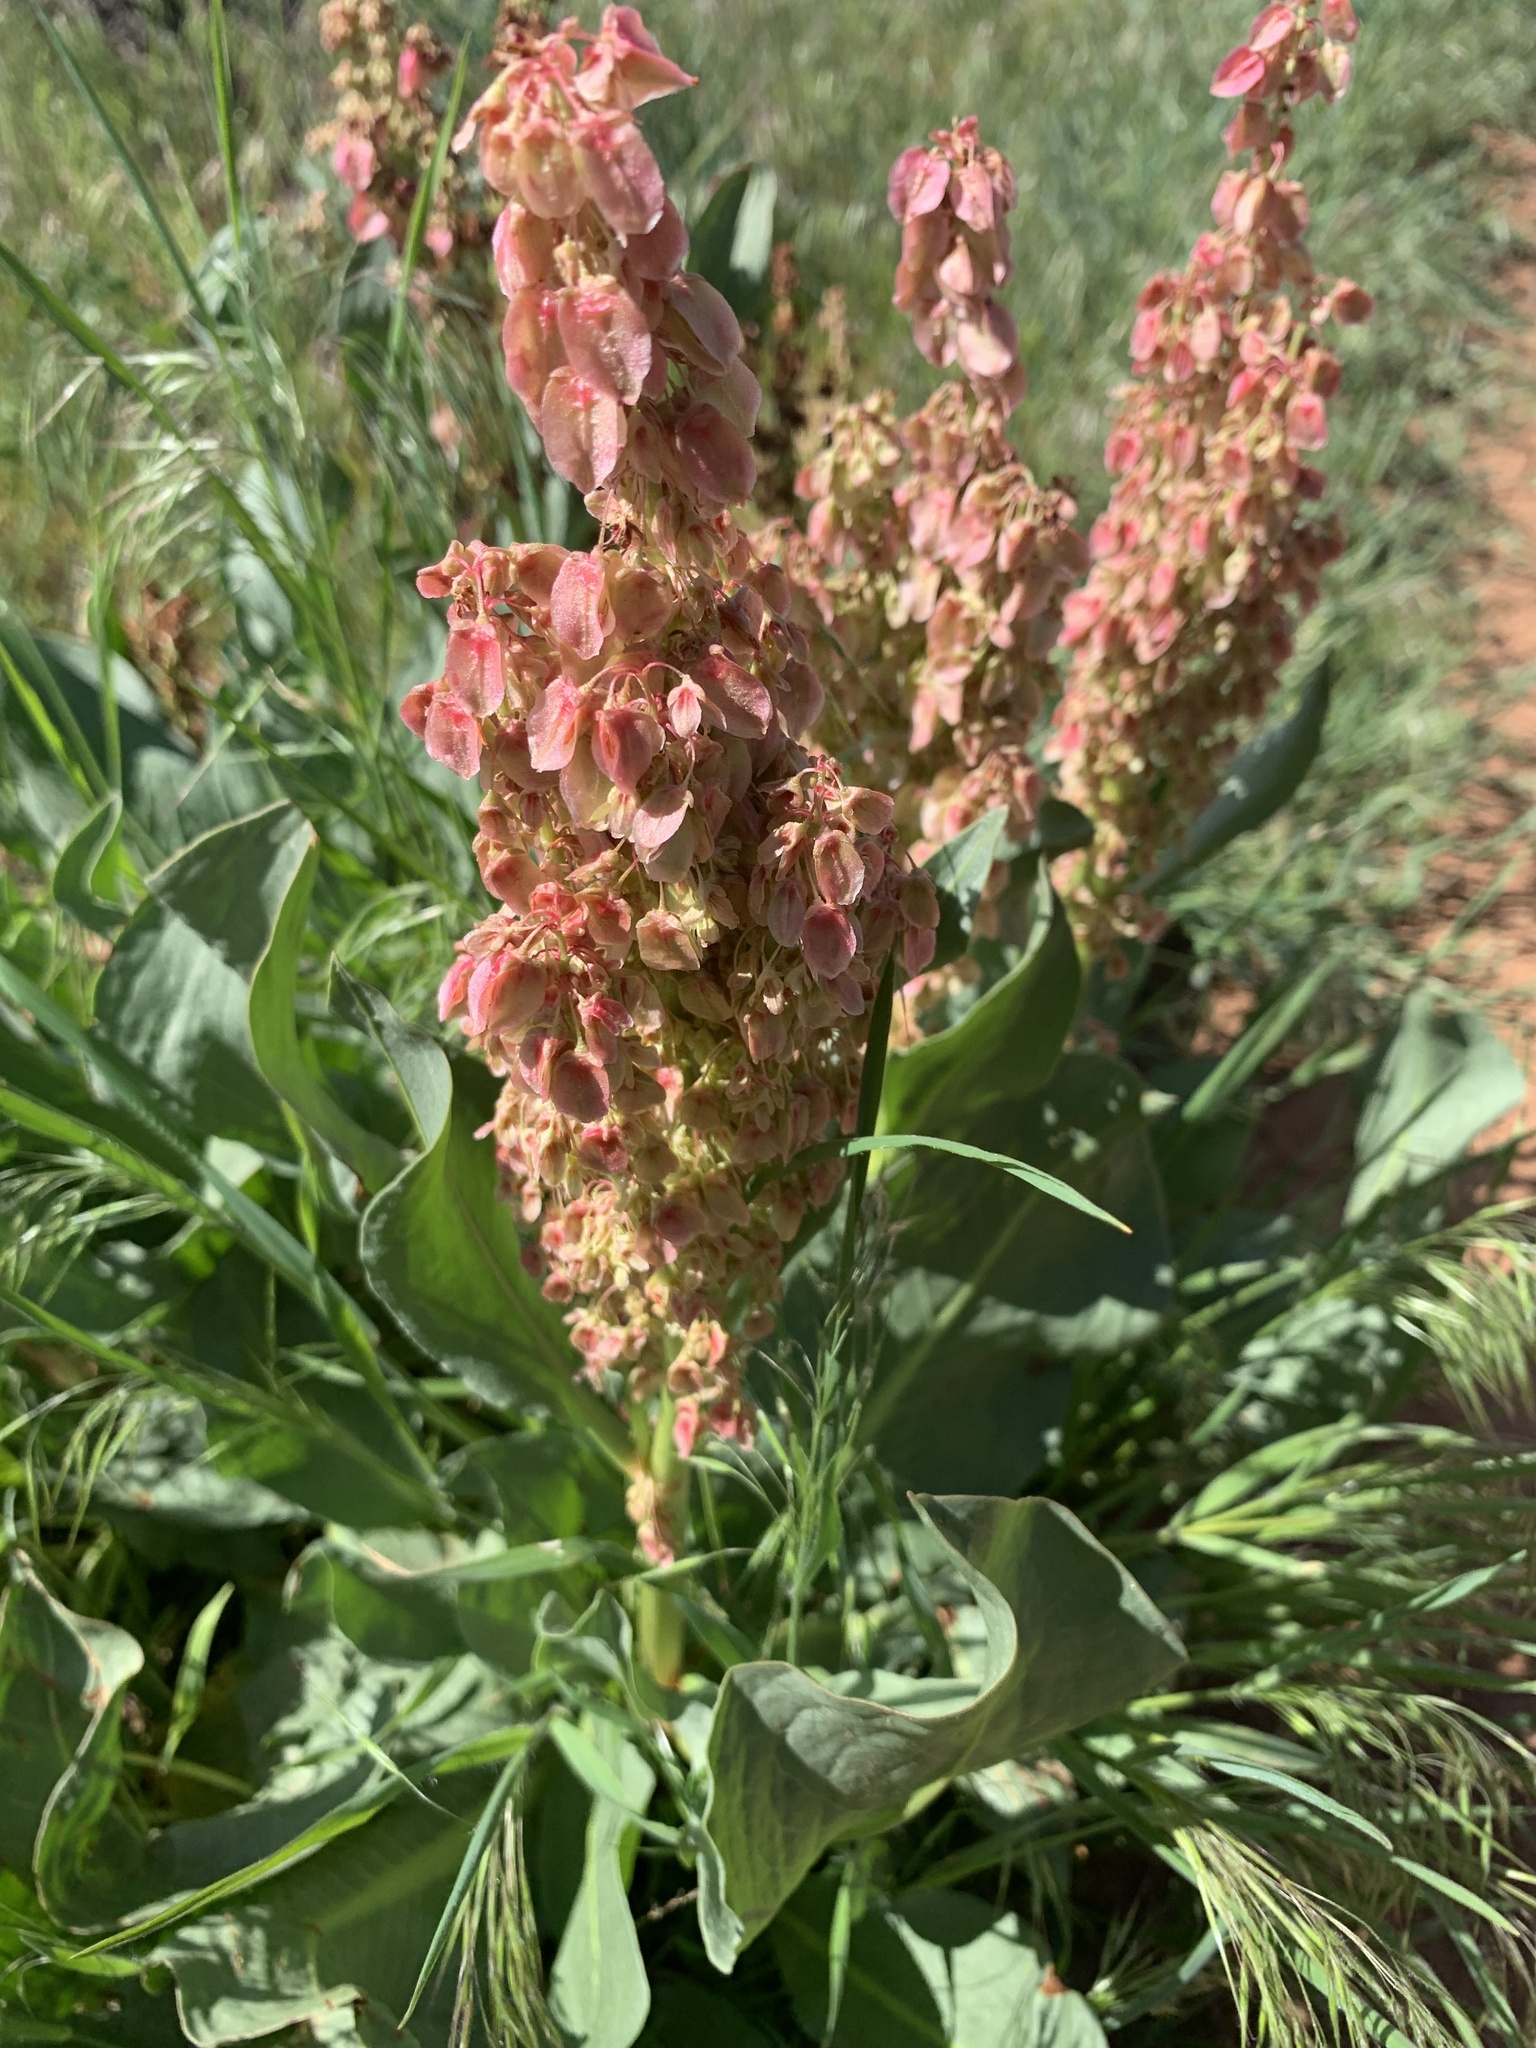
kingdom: Plantae
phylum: Tracheophyta
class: Magnoliopsida
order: Caryophyllales
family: Polygonaceae
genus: Rumex
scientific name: Rumex hymenosepalus
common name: Ganagra
